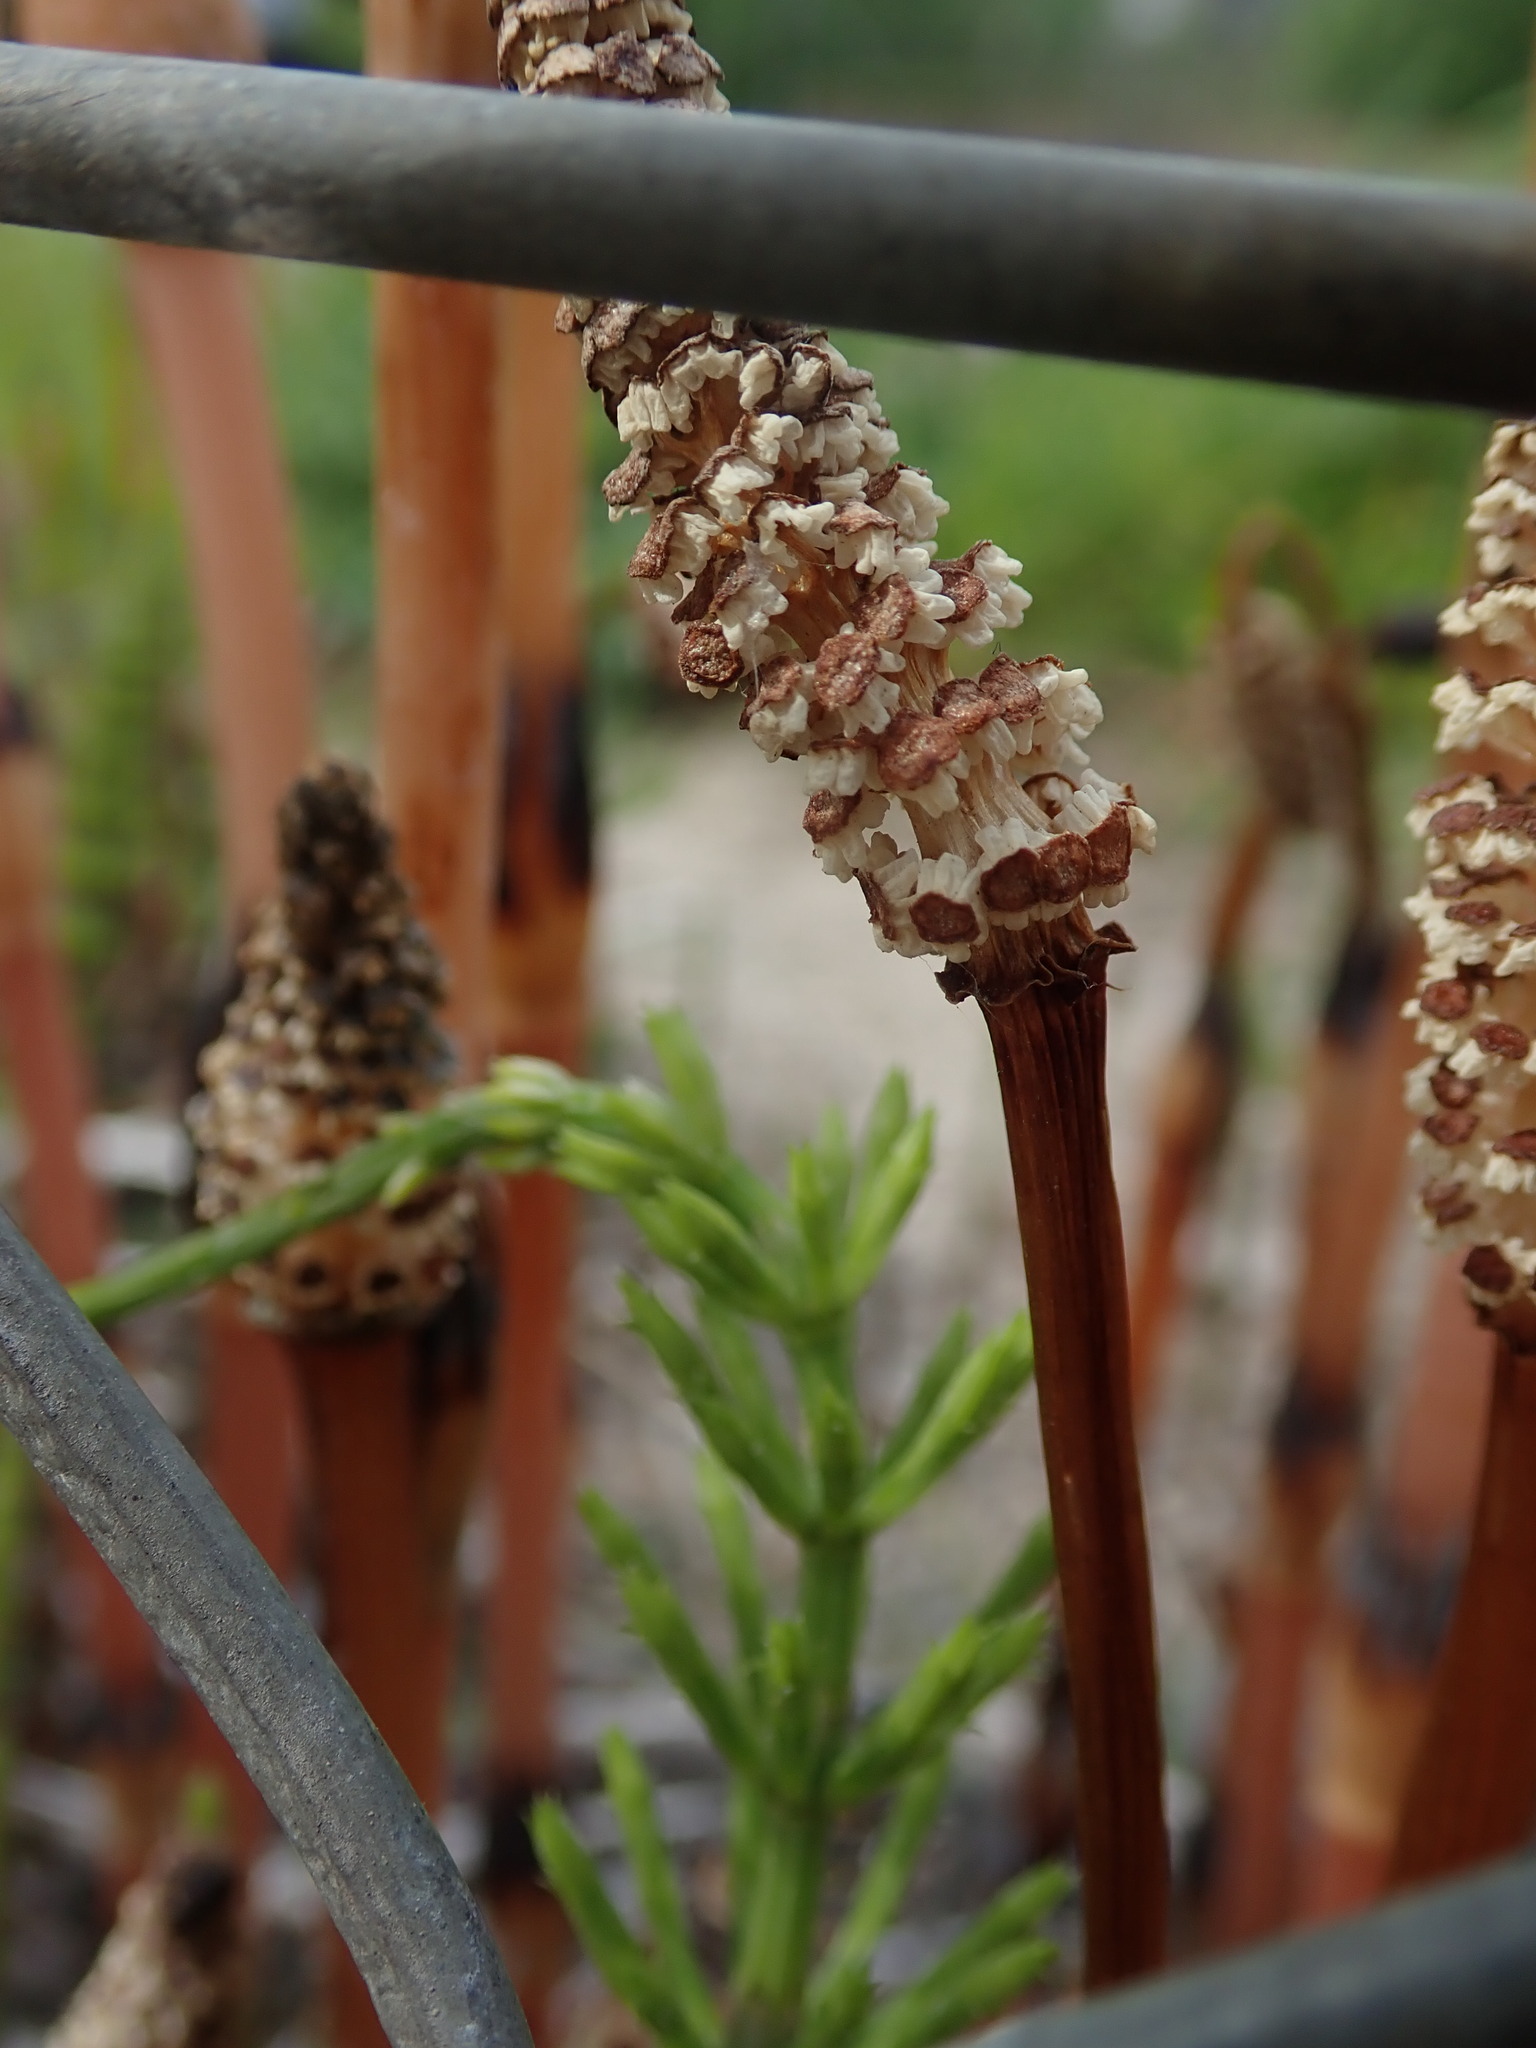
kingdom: Plantae
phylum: Tracheophyta
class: Polypodiopsida
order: Equisetales
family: Equisetaceae
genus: Equisetum
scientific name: Equisetum arvense
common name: Field horsetail
